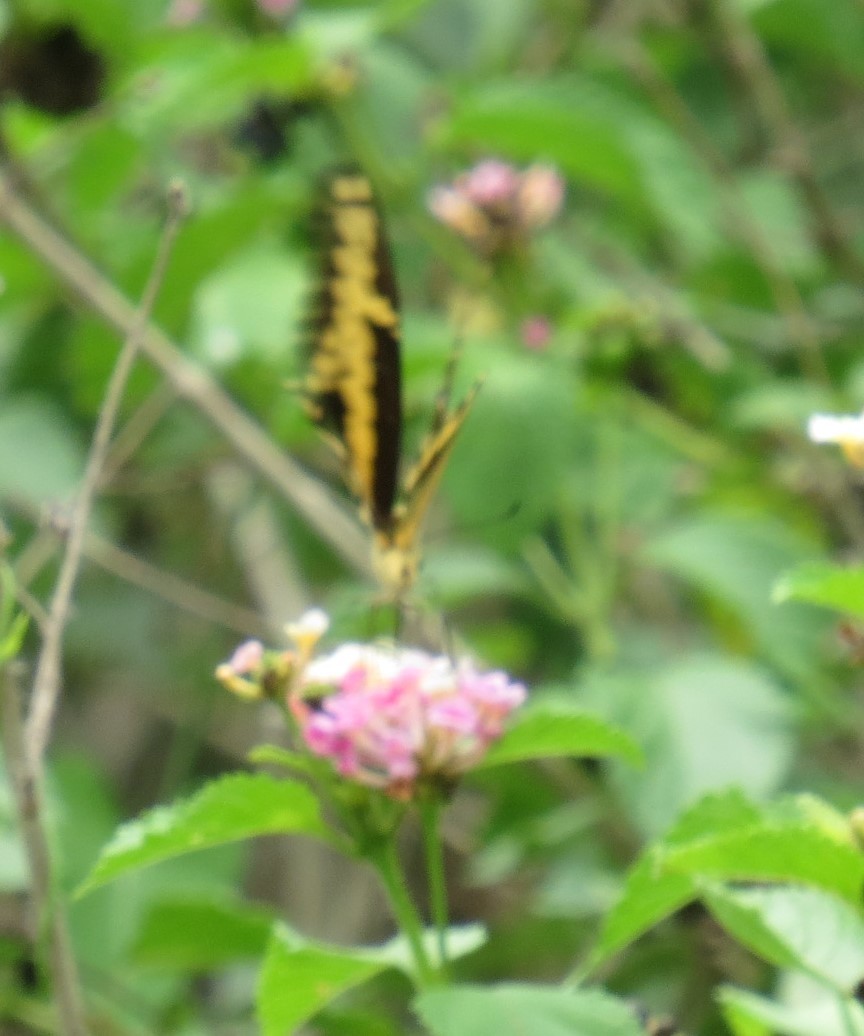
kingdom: Animalia
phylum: Arthropoda
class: Insecta
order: Lepidoptera
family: Papilionidae
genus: Papilio
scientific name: Papilio rumiko
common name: Western giant swallowtail
